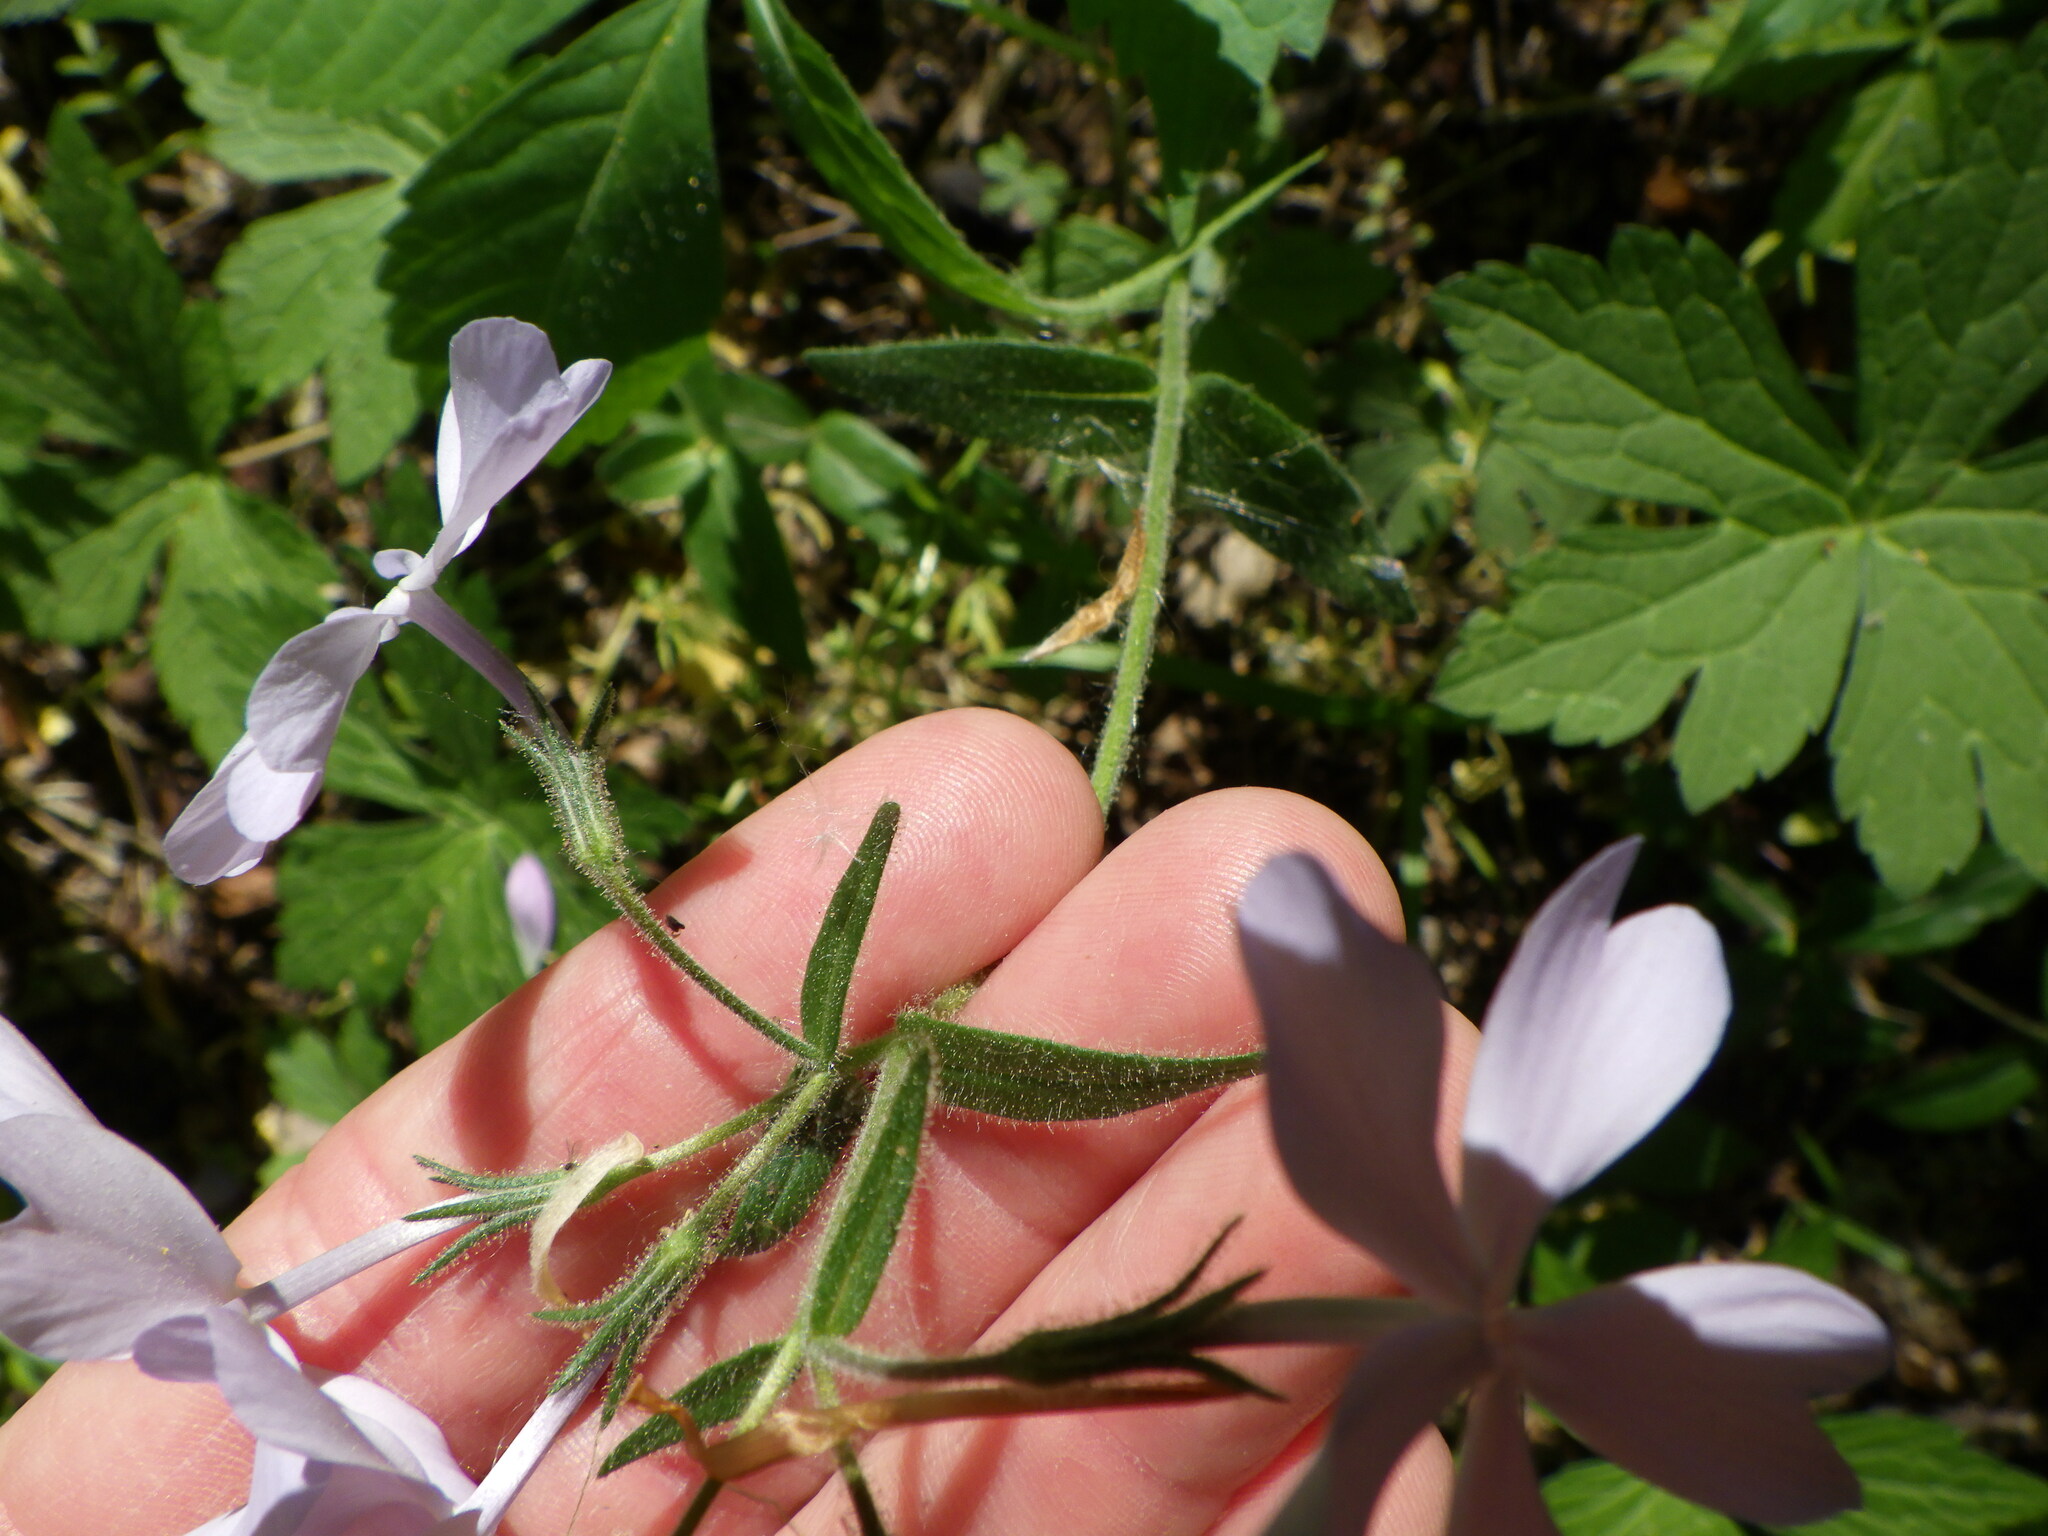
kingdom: Plantae
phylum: Tracheophyta
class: Magnoliopsida
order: Ericales
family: Polemoniaceae
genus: Phlox
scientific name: Phlox divaricata
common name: Blue phlox
